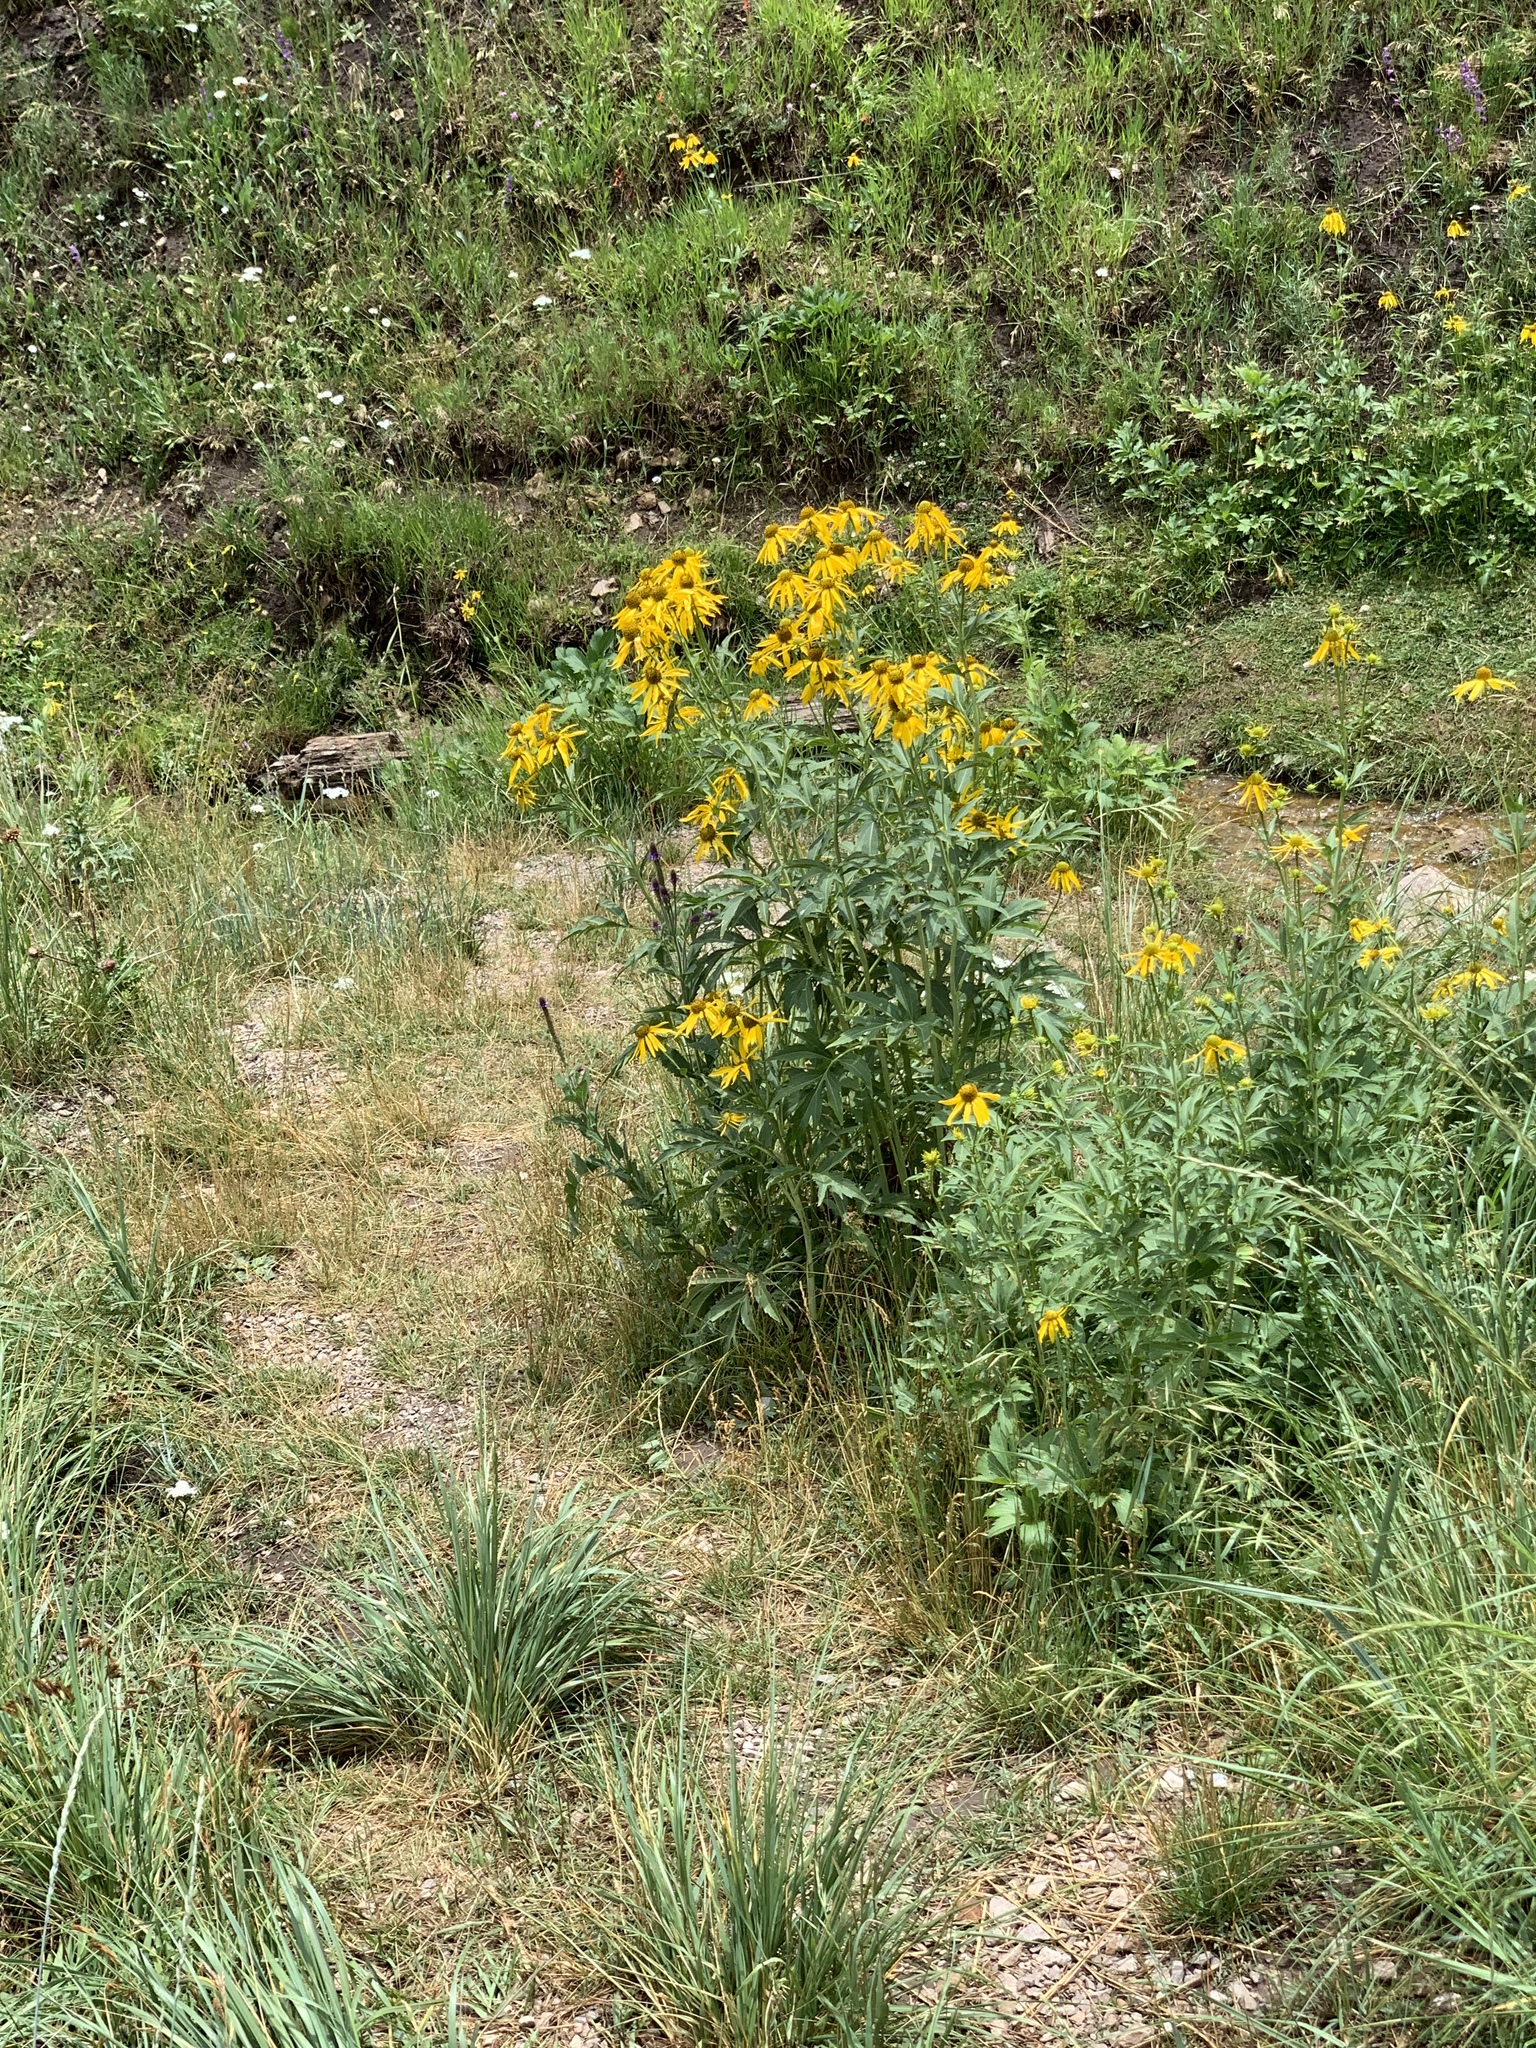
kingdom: Plantae
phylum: Tracheophyta
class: Magnoliopsida
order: Asterales
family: Asteraceae
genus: Rudbeckia
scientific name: Rudbeckia laciniata
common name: Coneflower
